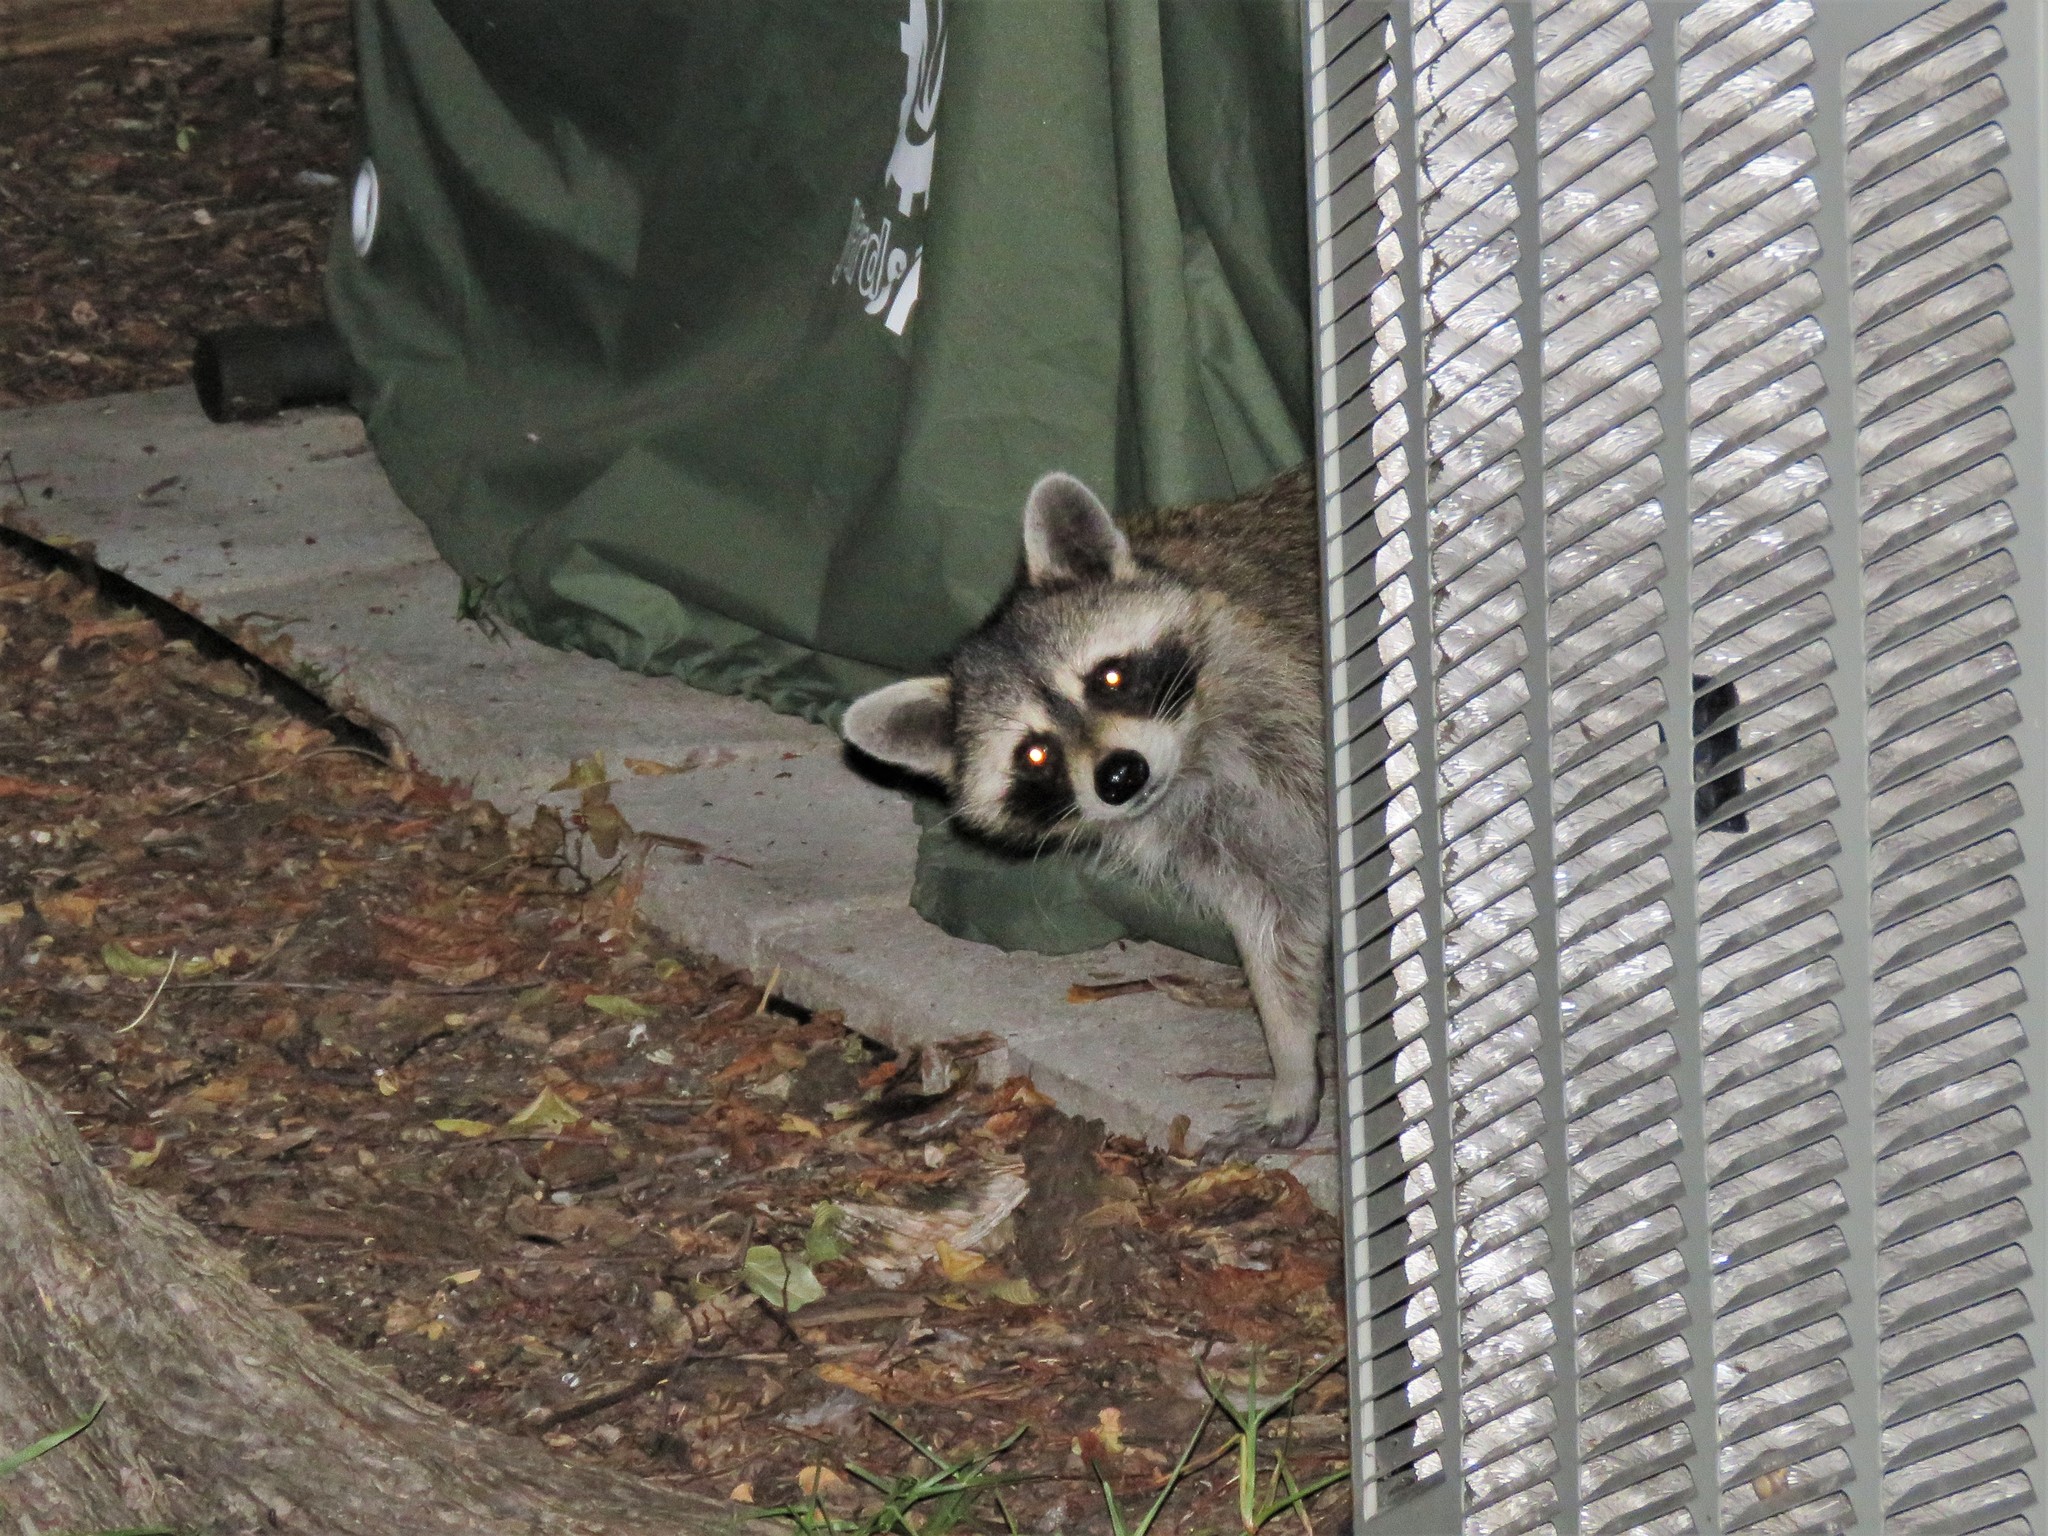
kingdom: Animalia
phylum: Chordata
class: Mammalia
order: Carnivora
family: Procyonidae
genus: Procyon
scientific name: Procyon lotor
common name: Raccoon
